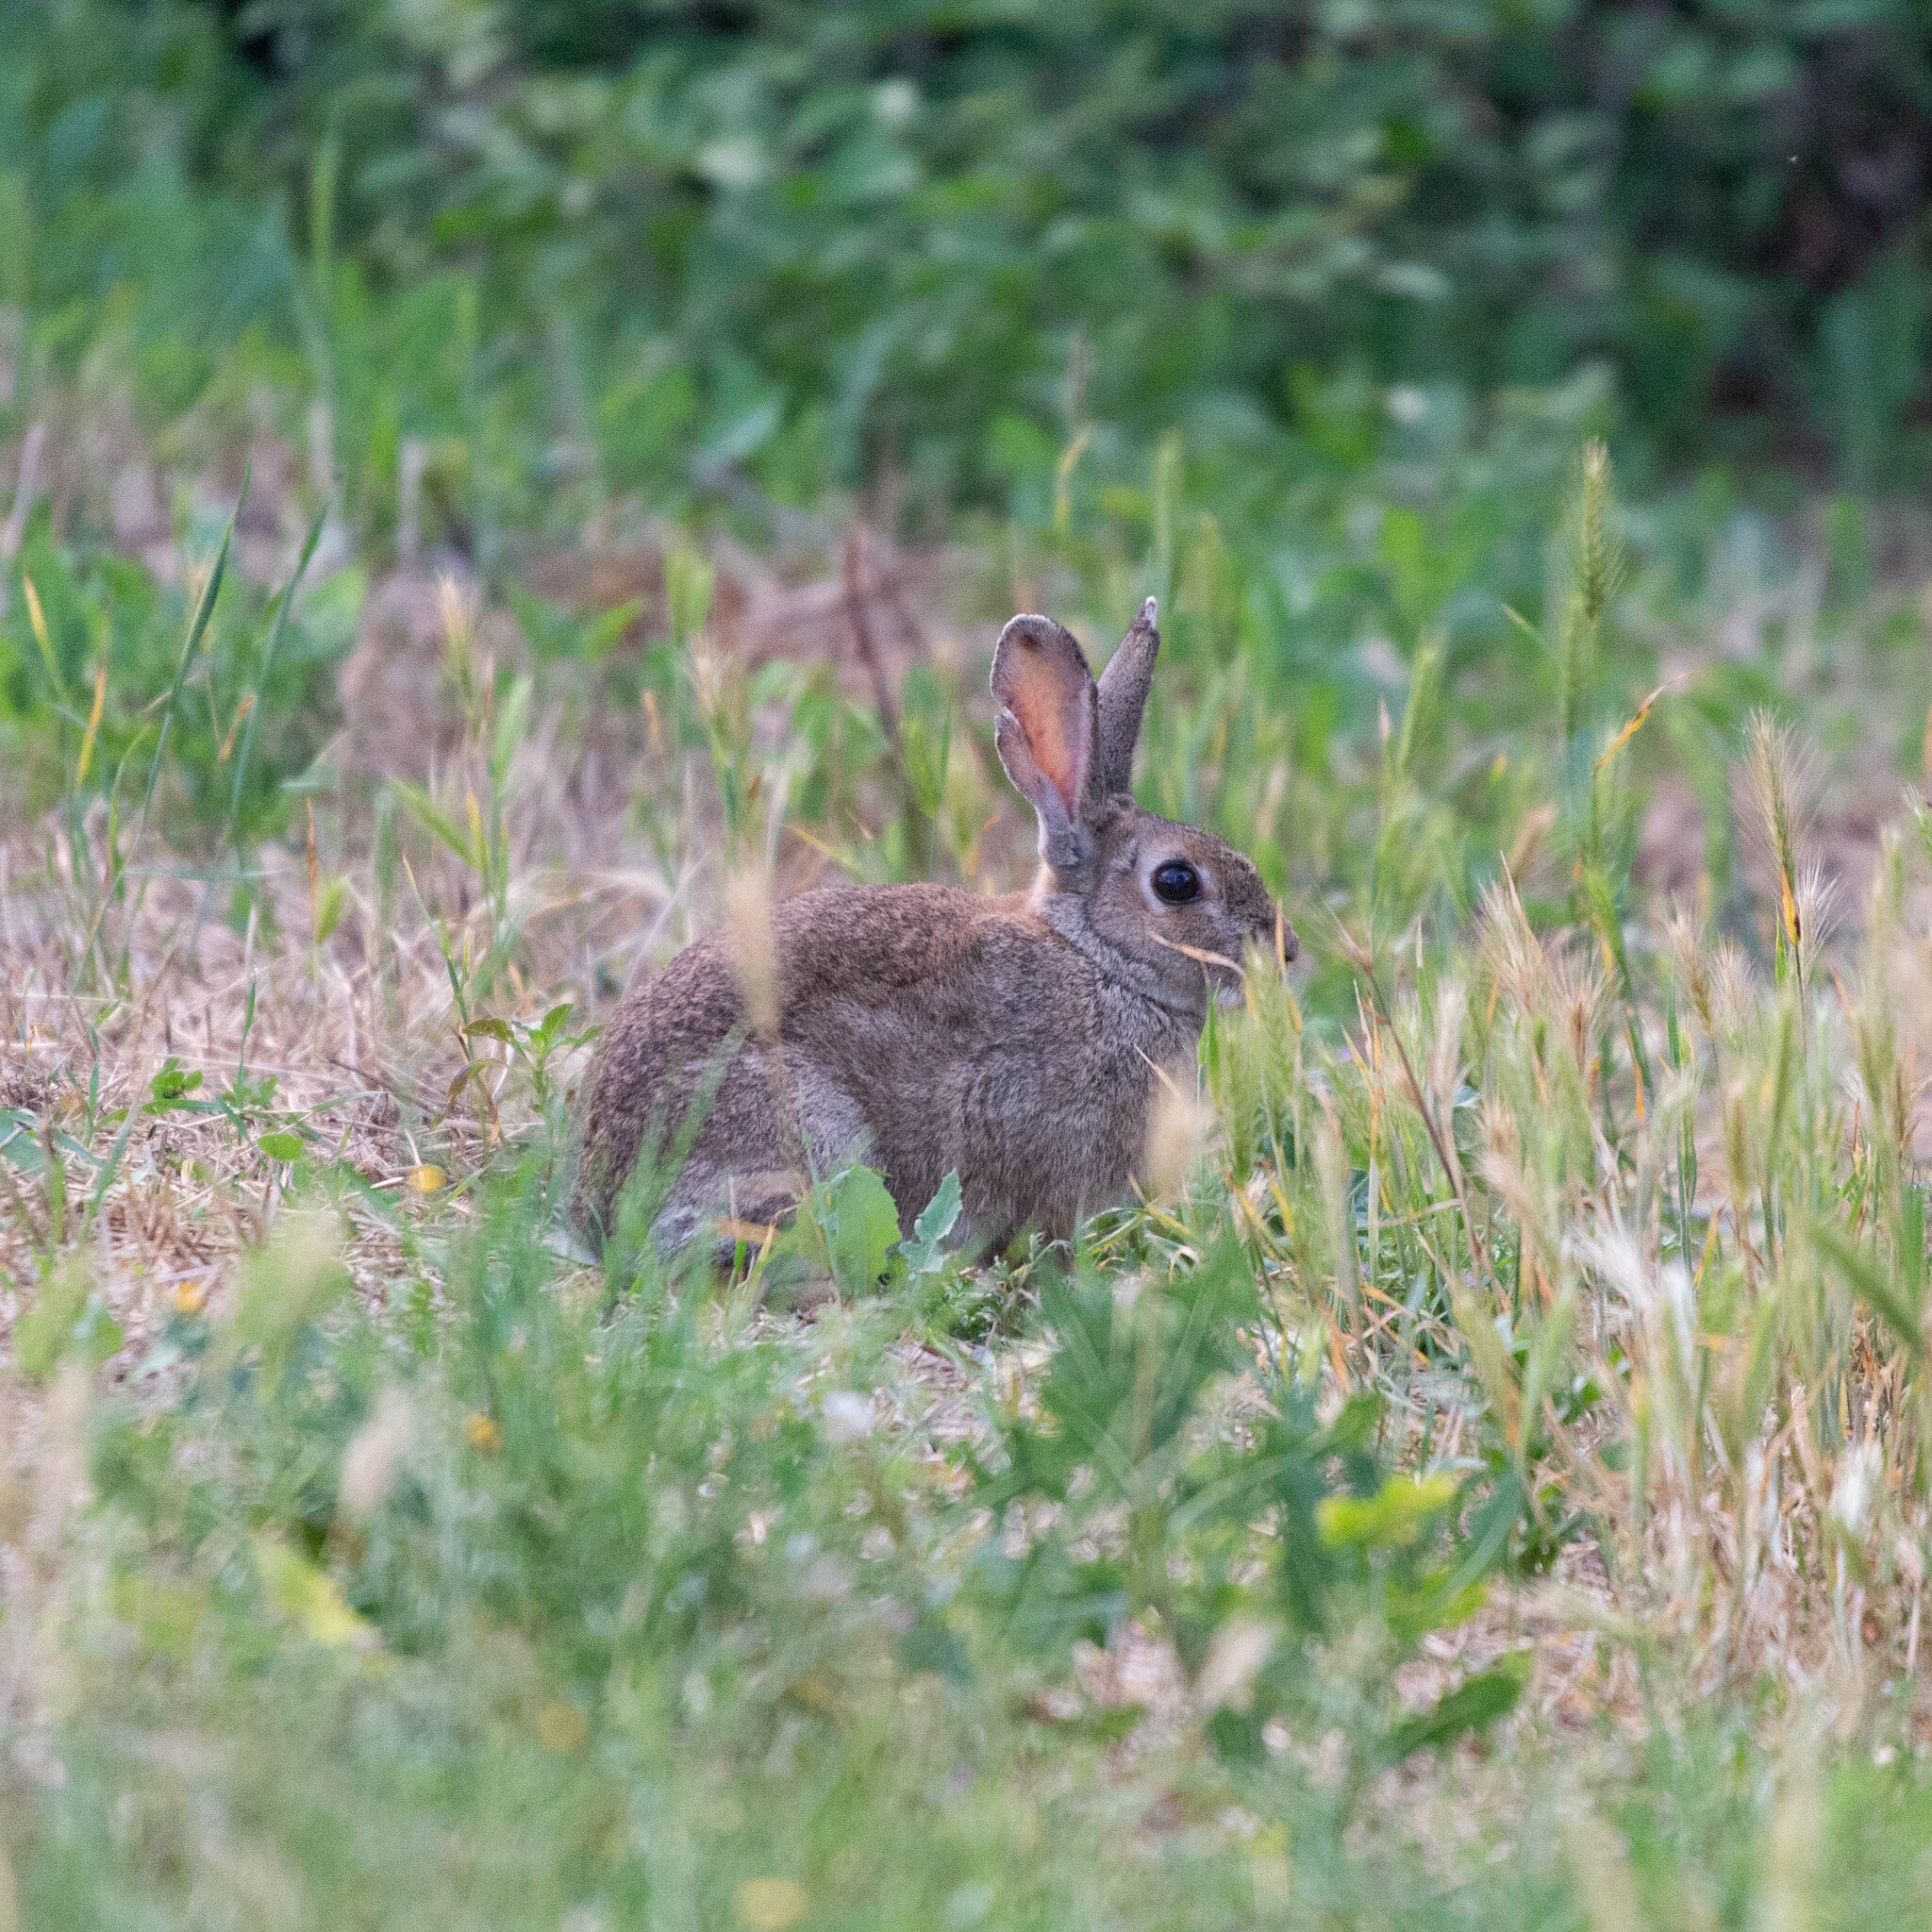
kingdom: Animalia
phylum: Chordata
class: Mammalia
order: Lagomorpha
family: Leporidae
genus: Oryctolagus
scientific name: Oryctolagus cuniculus
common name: European rabbit
